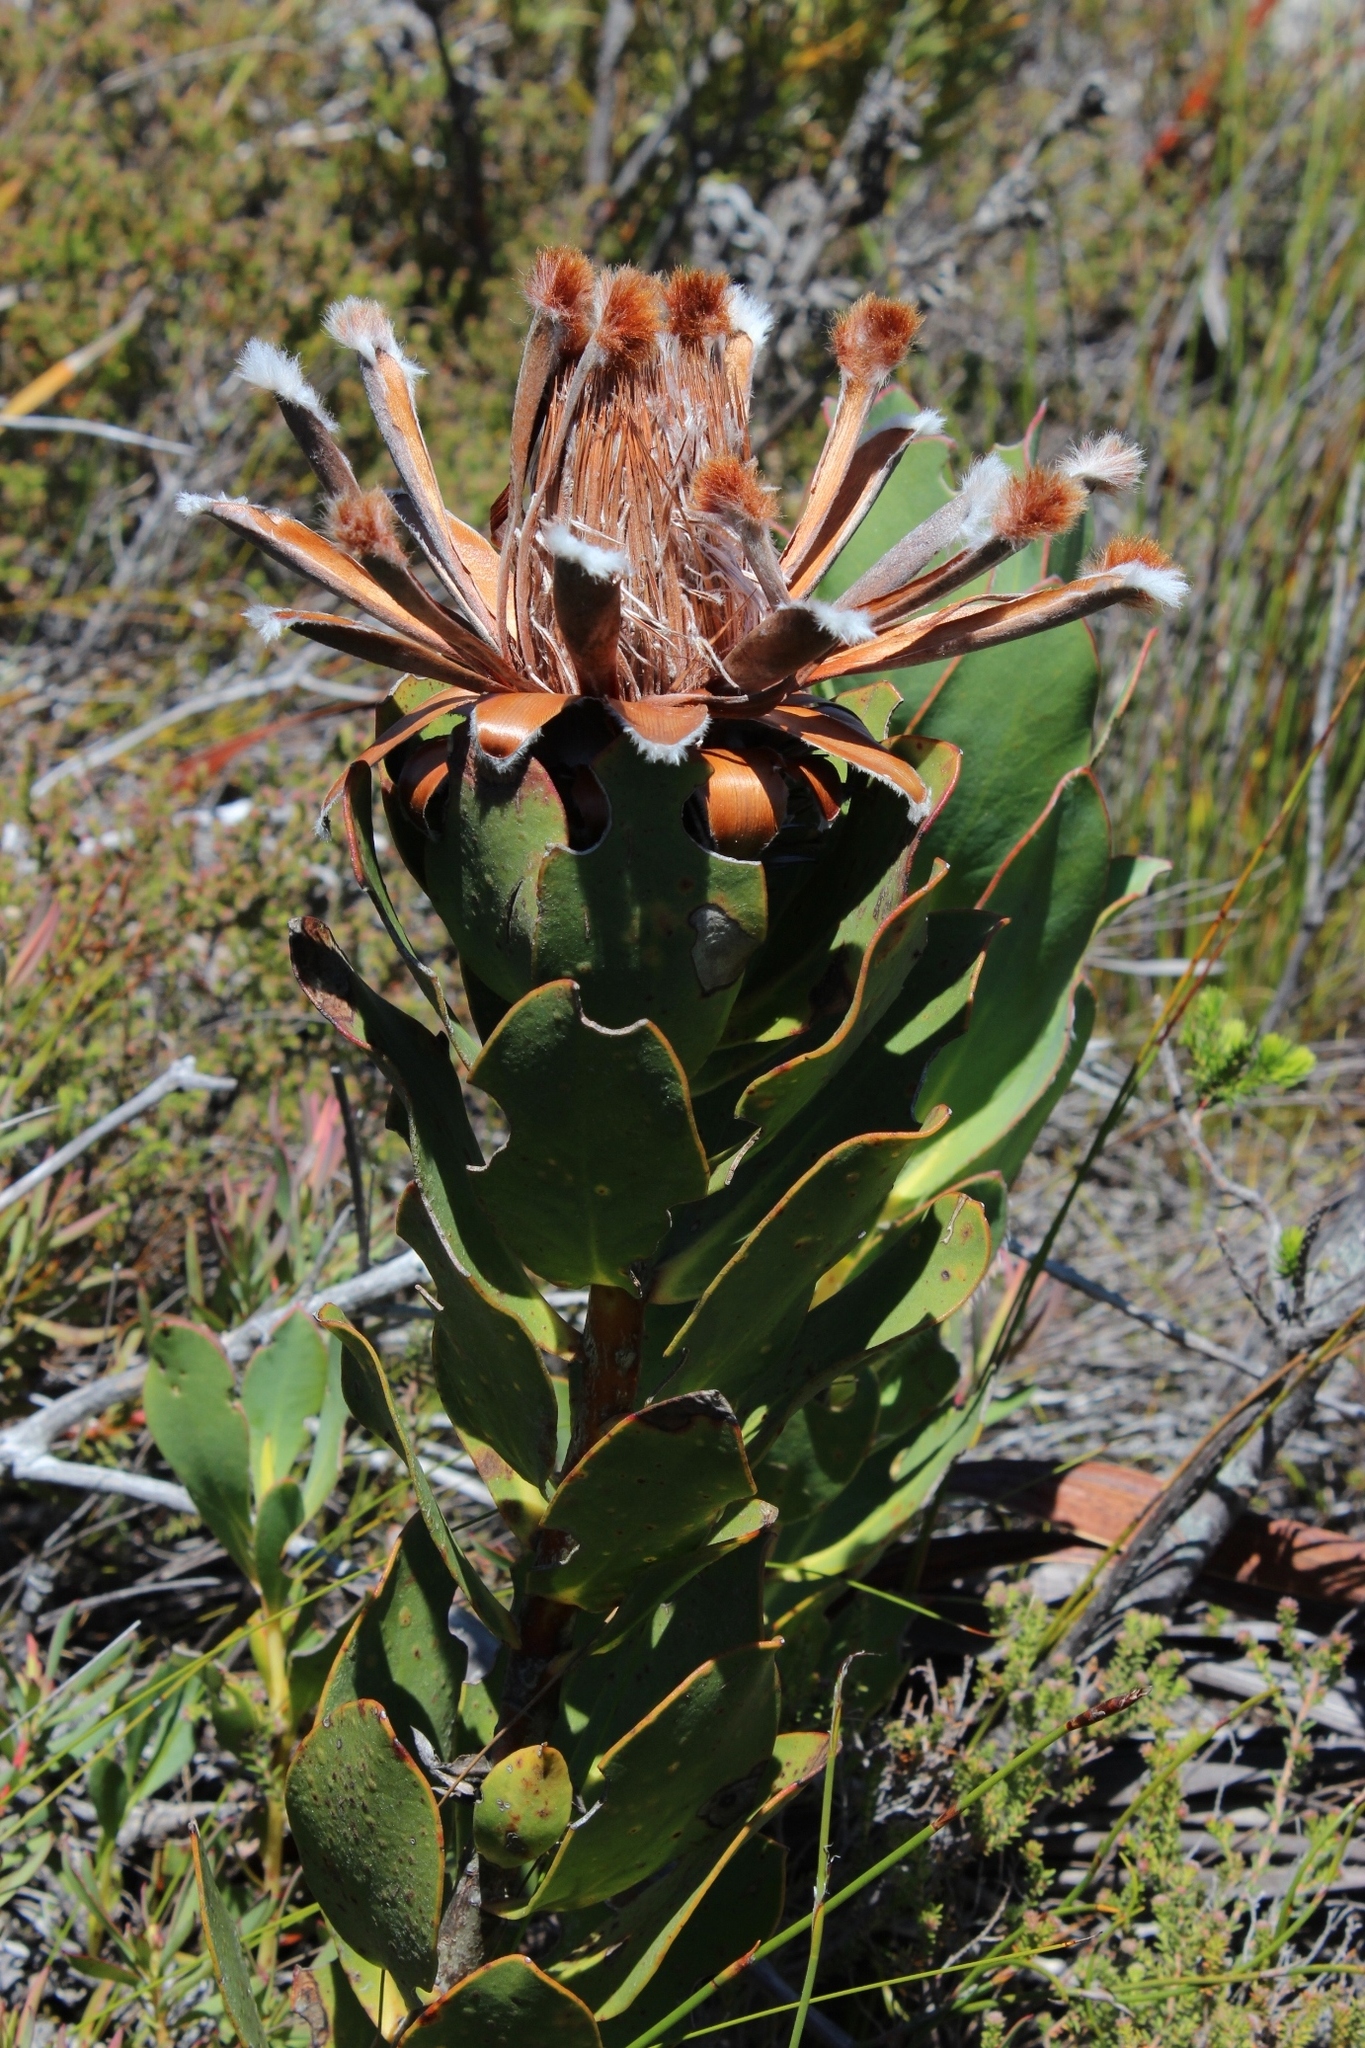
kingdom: Plantae
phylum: Tracheophyta
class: Magnoliopsida
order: Proteales
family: Proteaceae
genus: Protea
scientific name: Protea speciosa
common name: Brown-beard sugarbush
